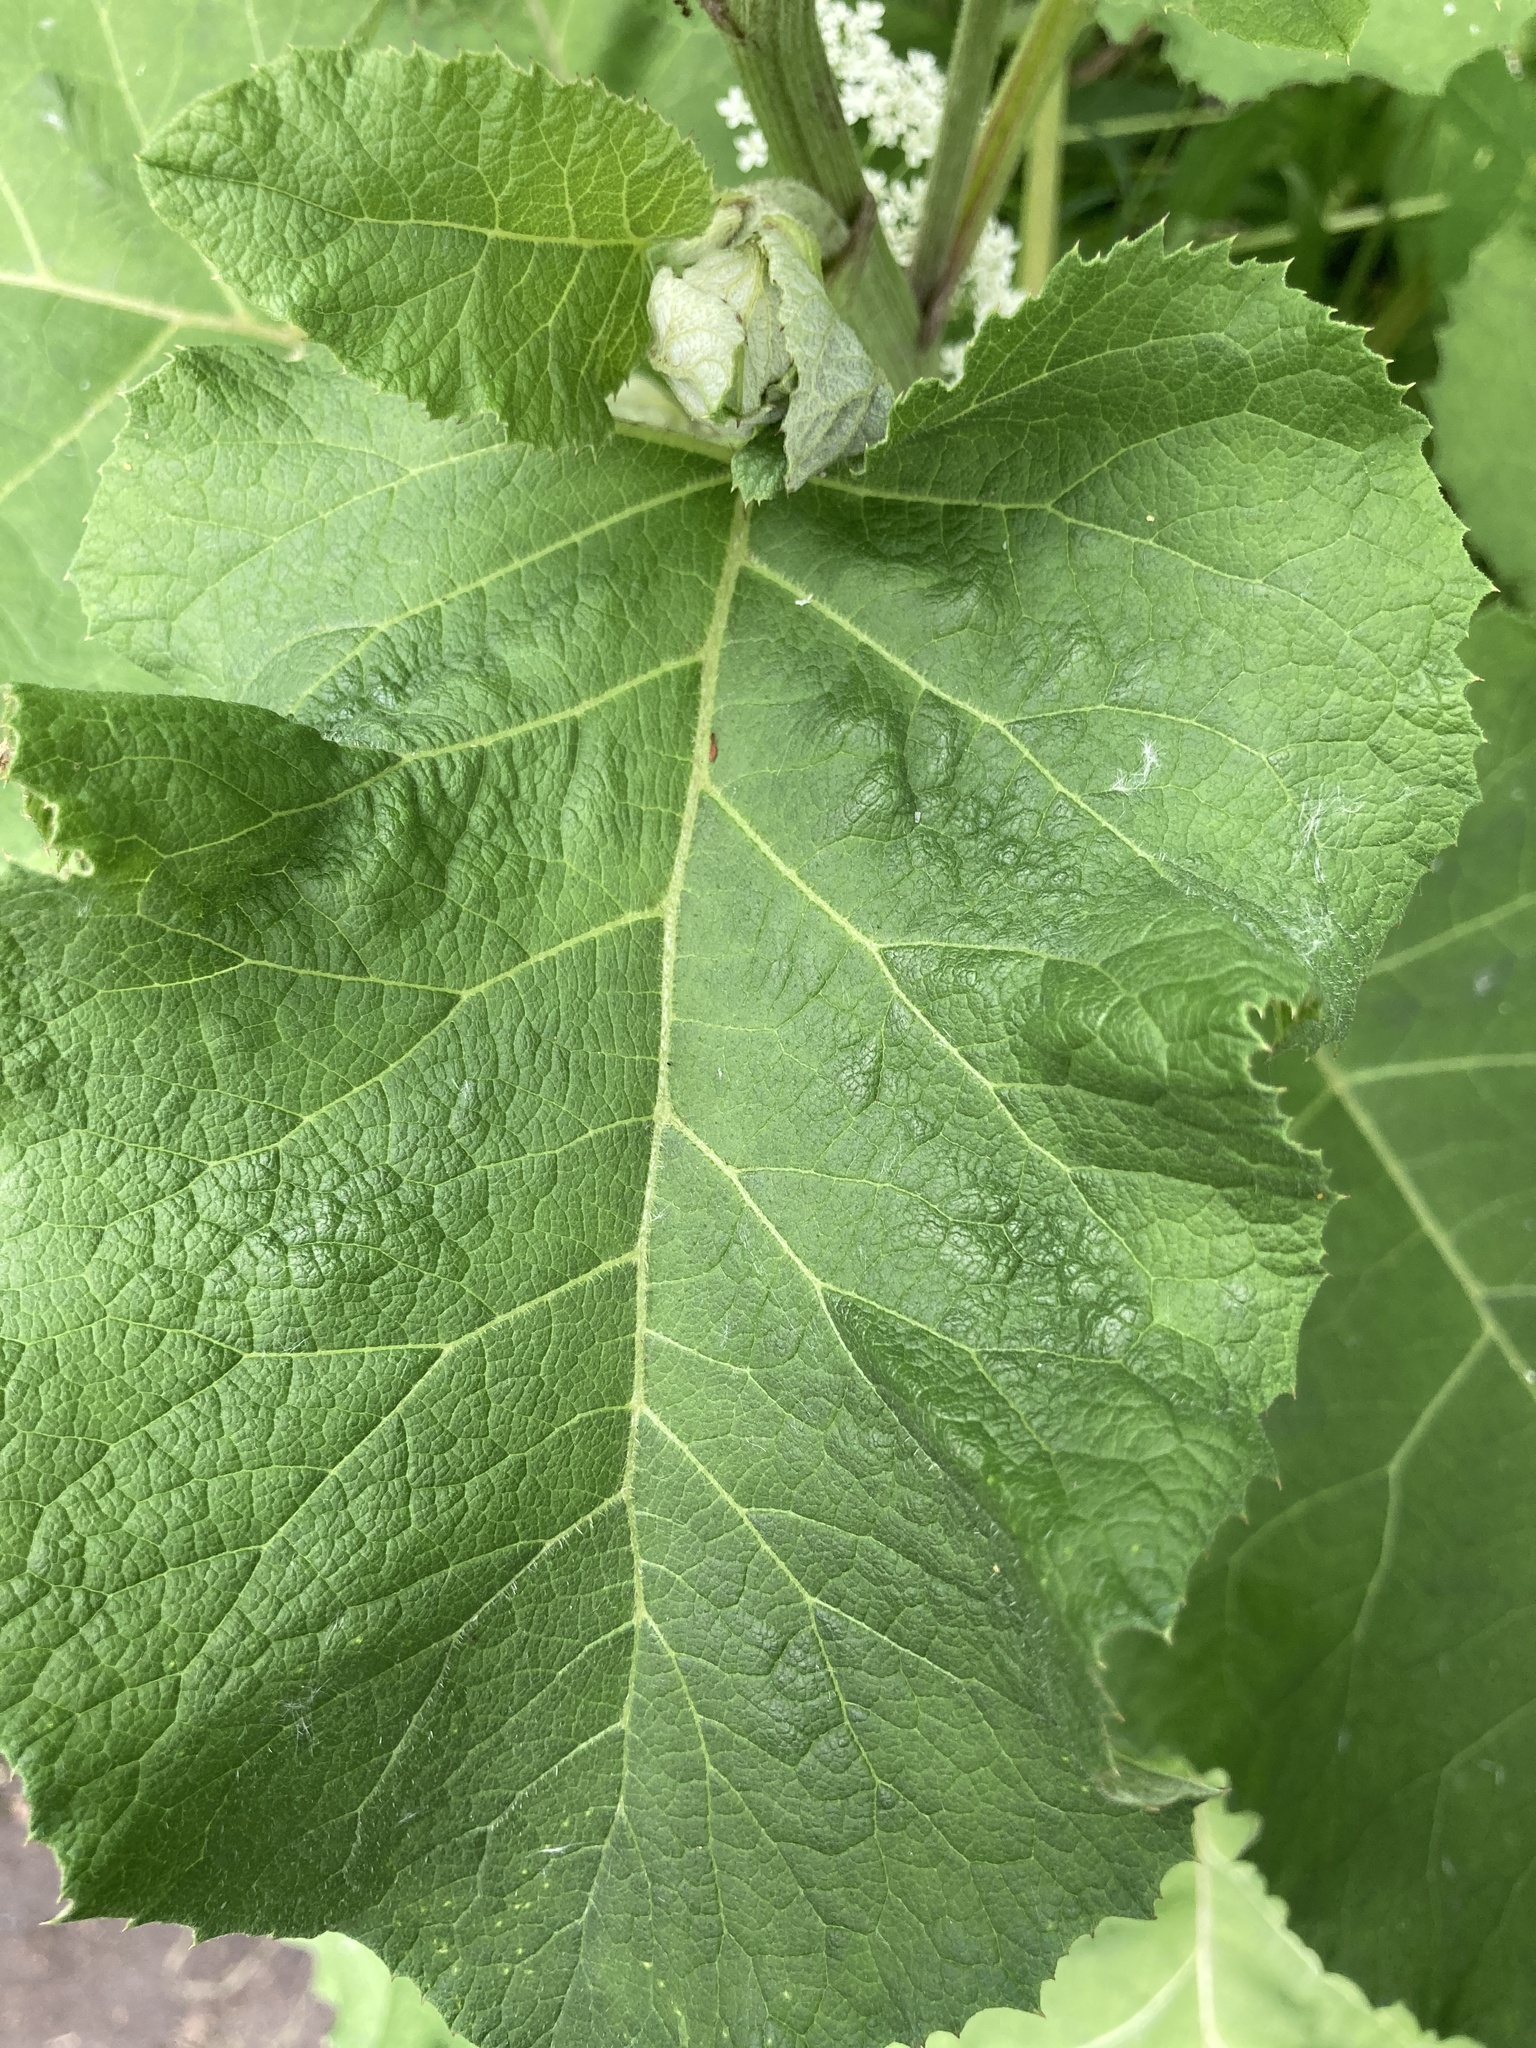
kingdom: Plantae
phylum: Tracheophyta
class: Magnoliopsida
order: Asterales
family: Asteraceae
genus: Arctium
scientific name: Arctium tomentosum
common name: Woolly burdock
